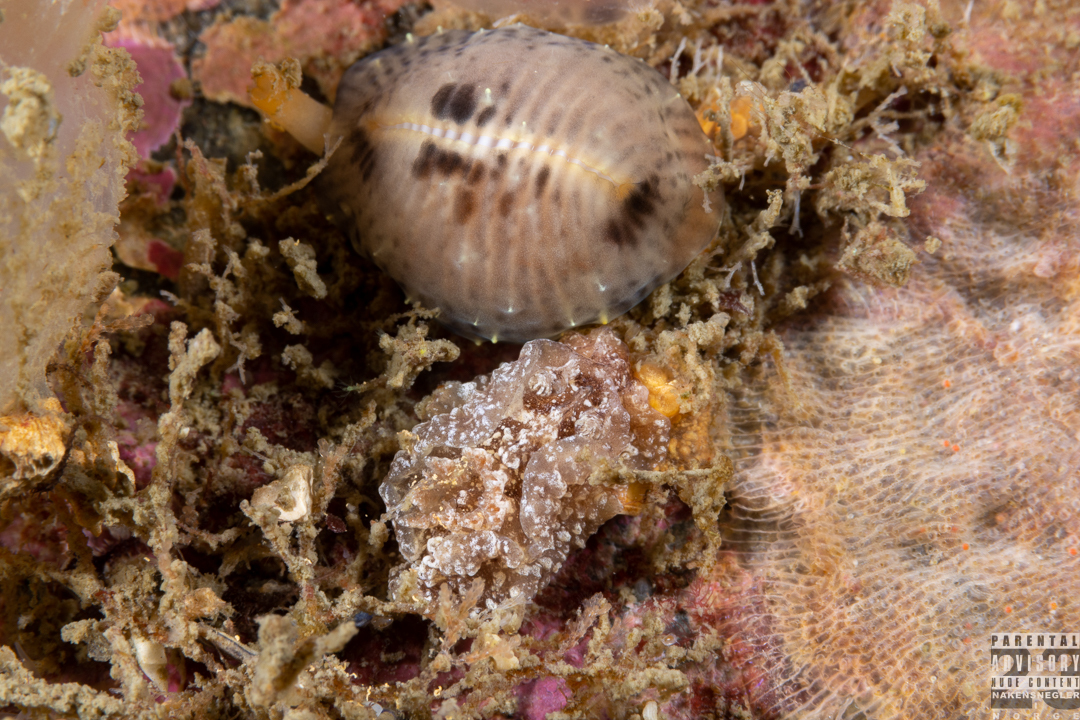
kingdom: Animalia
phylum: Mollusca
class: Gastropoda
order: Nudibranchia
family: Goniodorididae
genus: Pelagella
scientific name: Pelagella castanea
